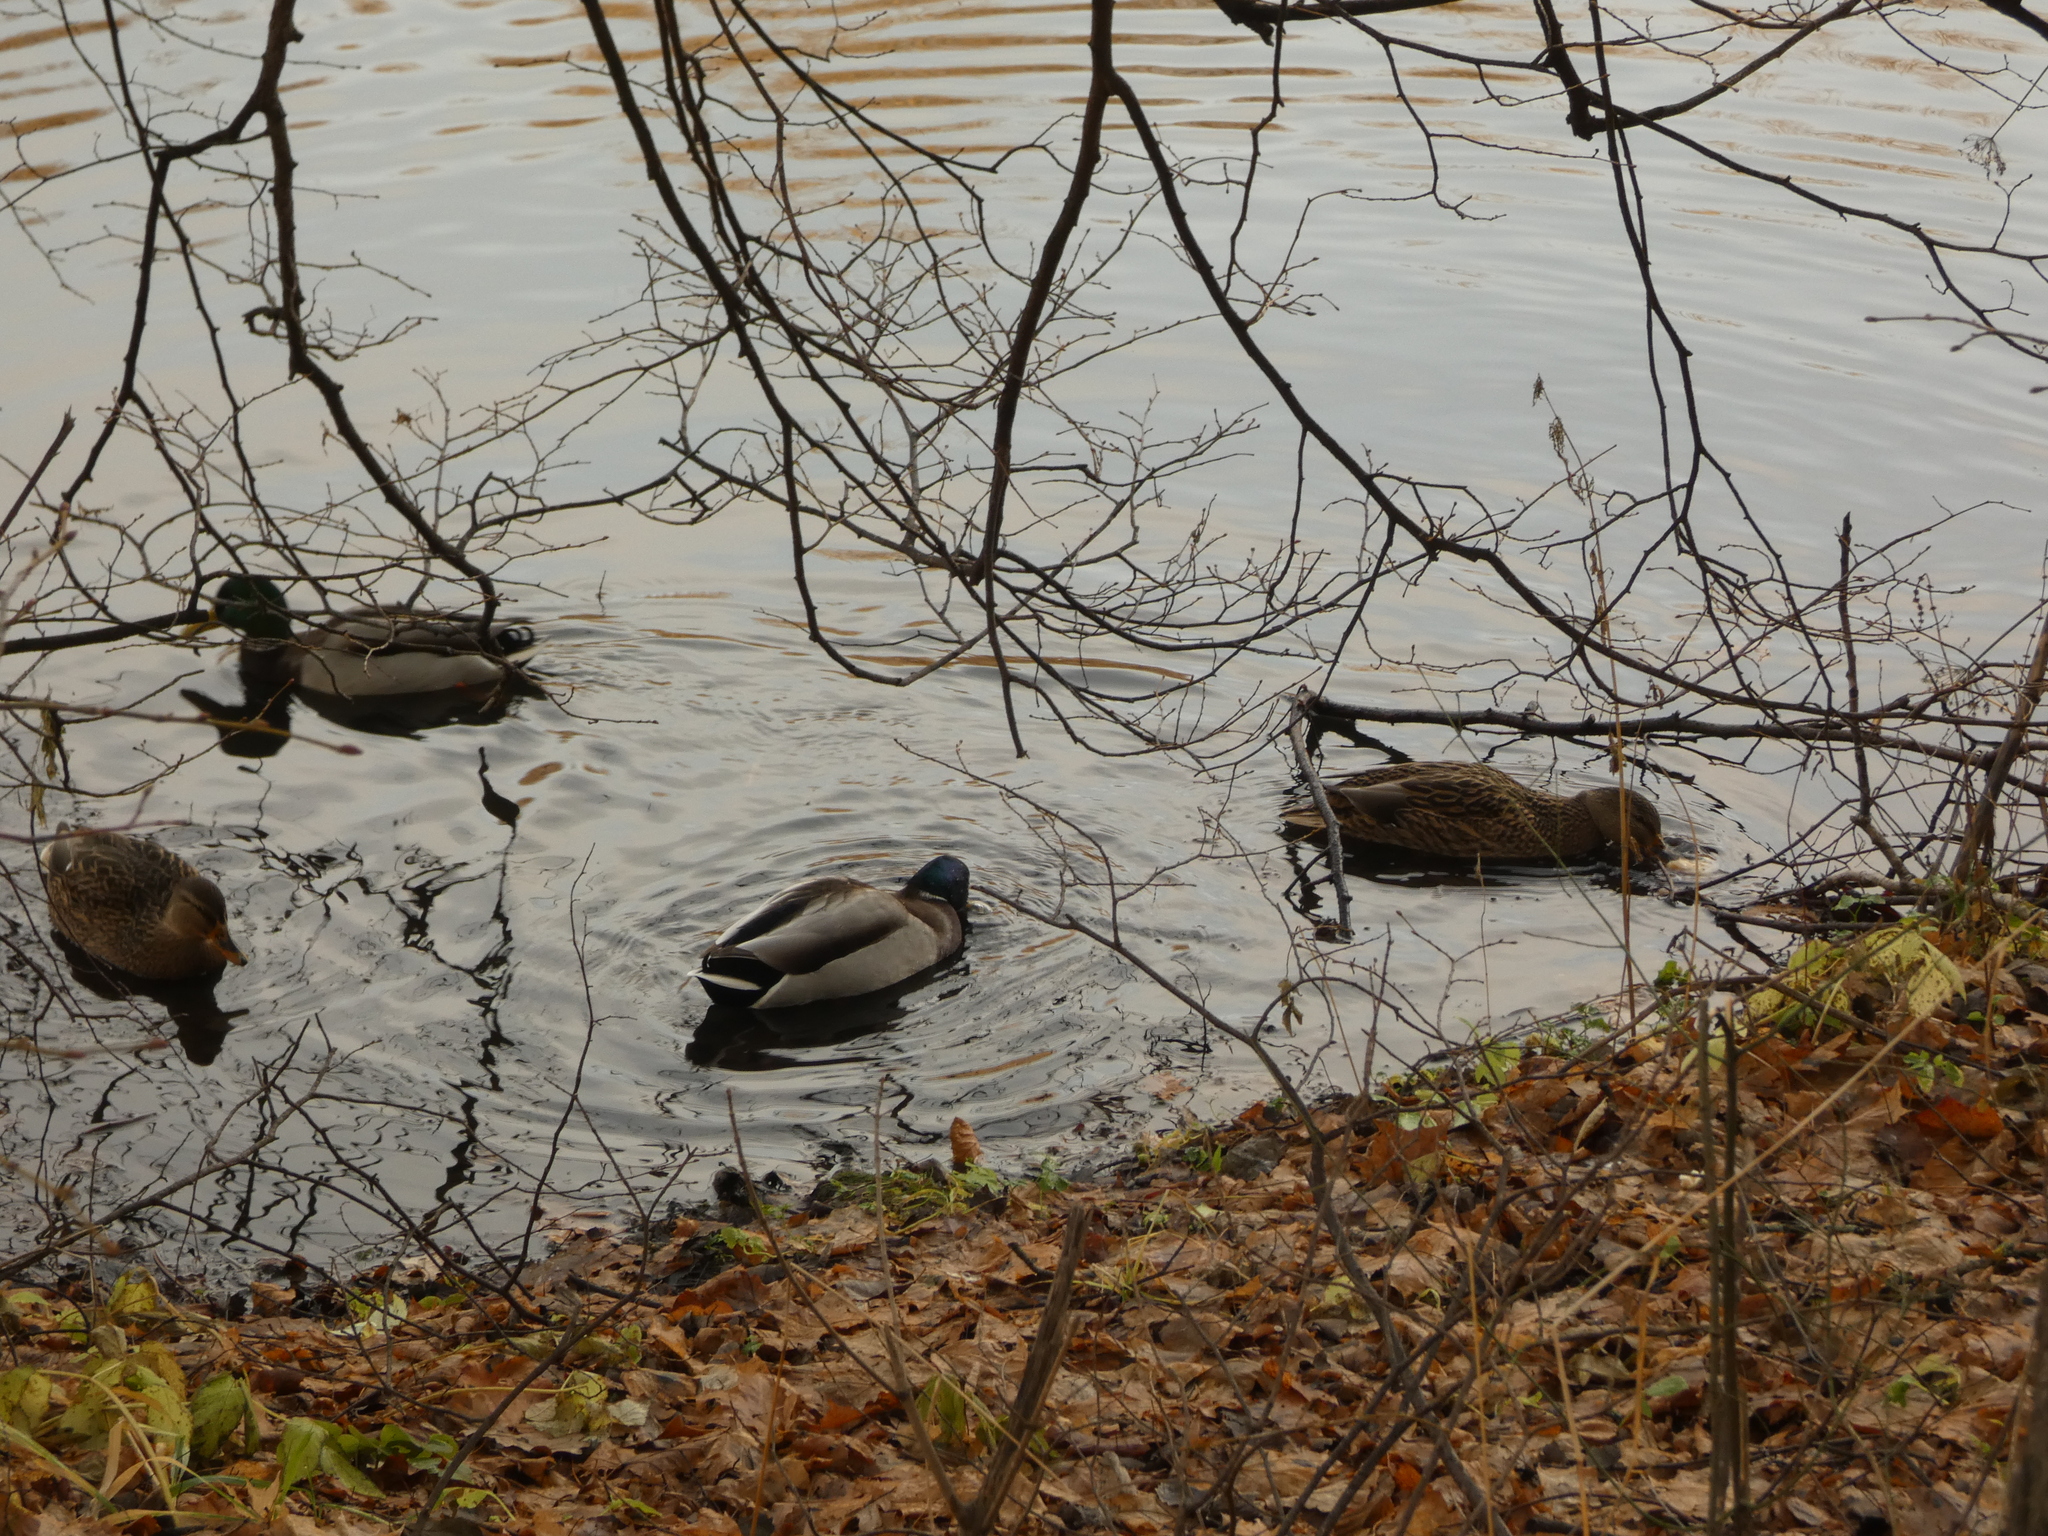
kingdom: Animalia
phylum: Chordata
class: Aves
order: Anseriformes
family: Anatidae
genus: Anas
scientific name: Anas platyrhynchos
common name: Mallard
